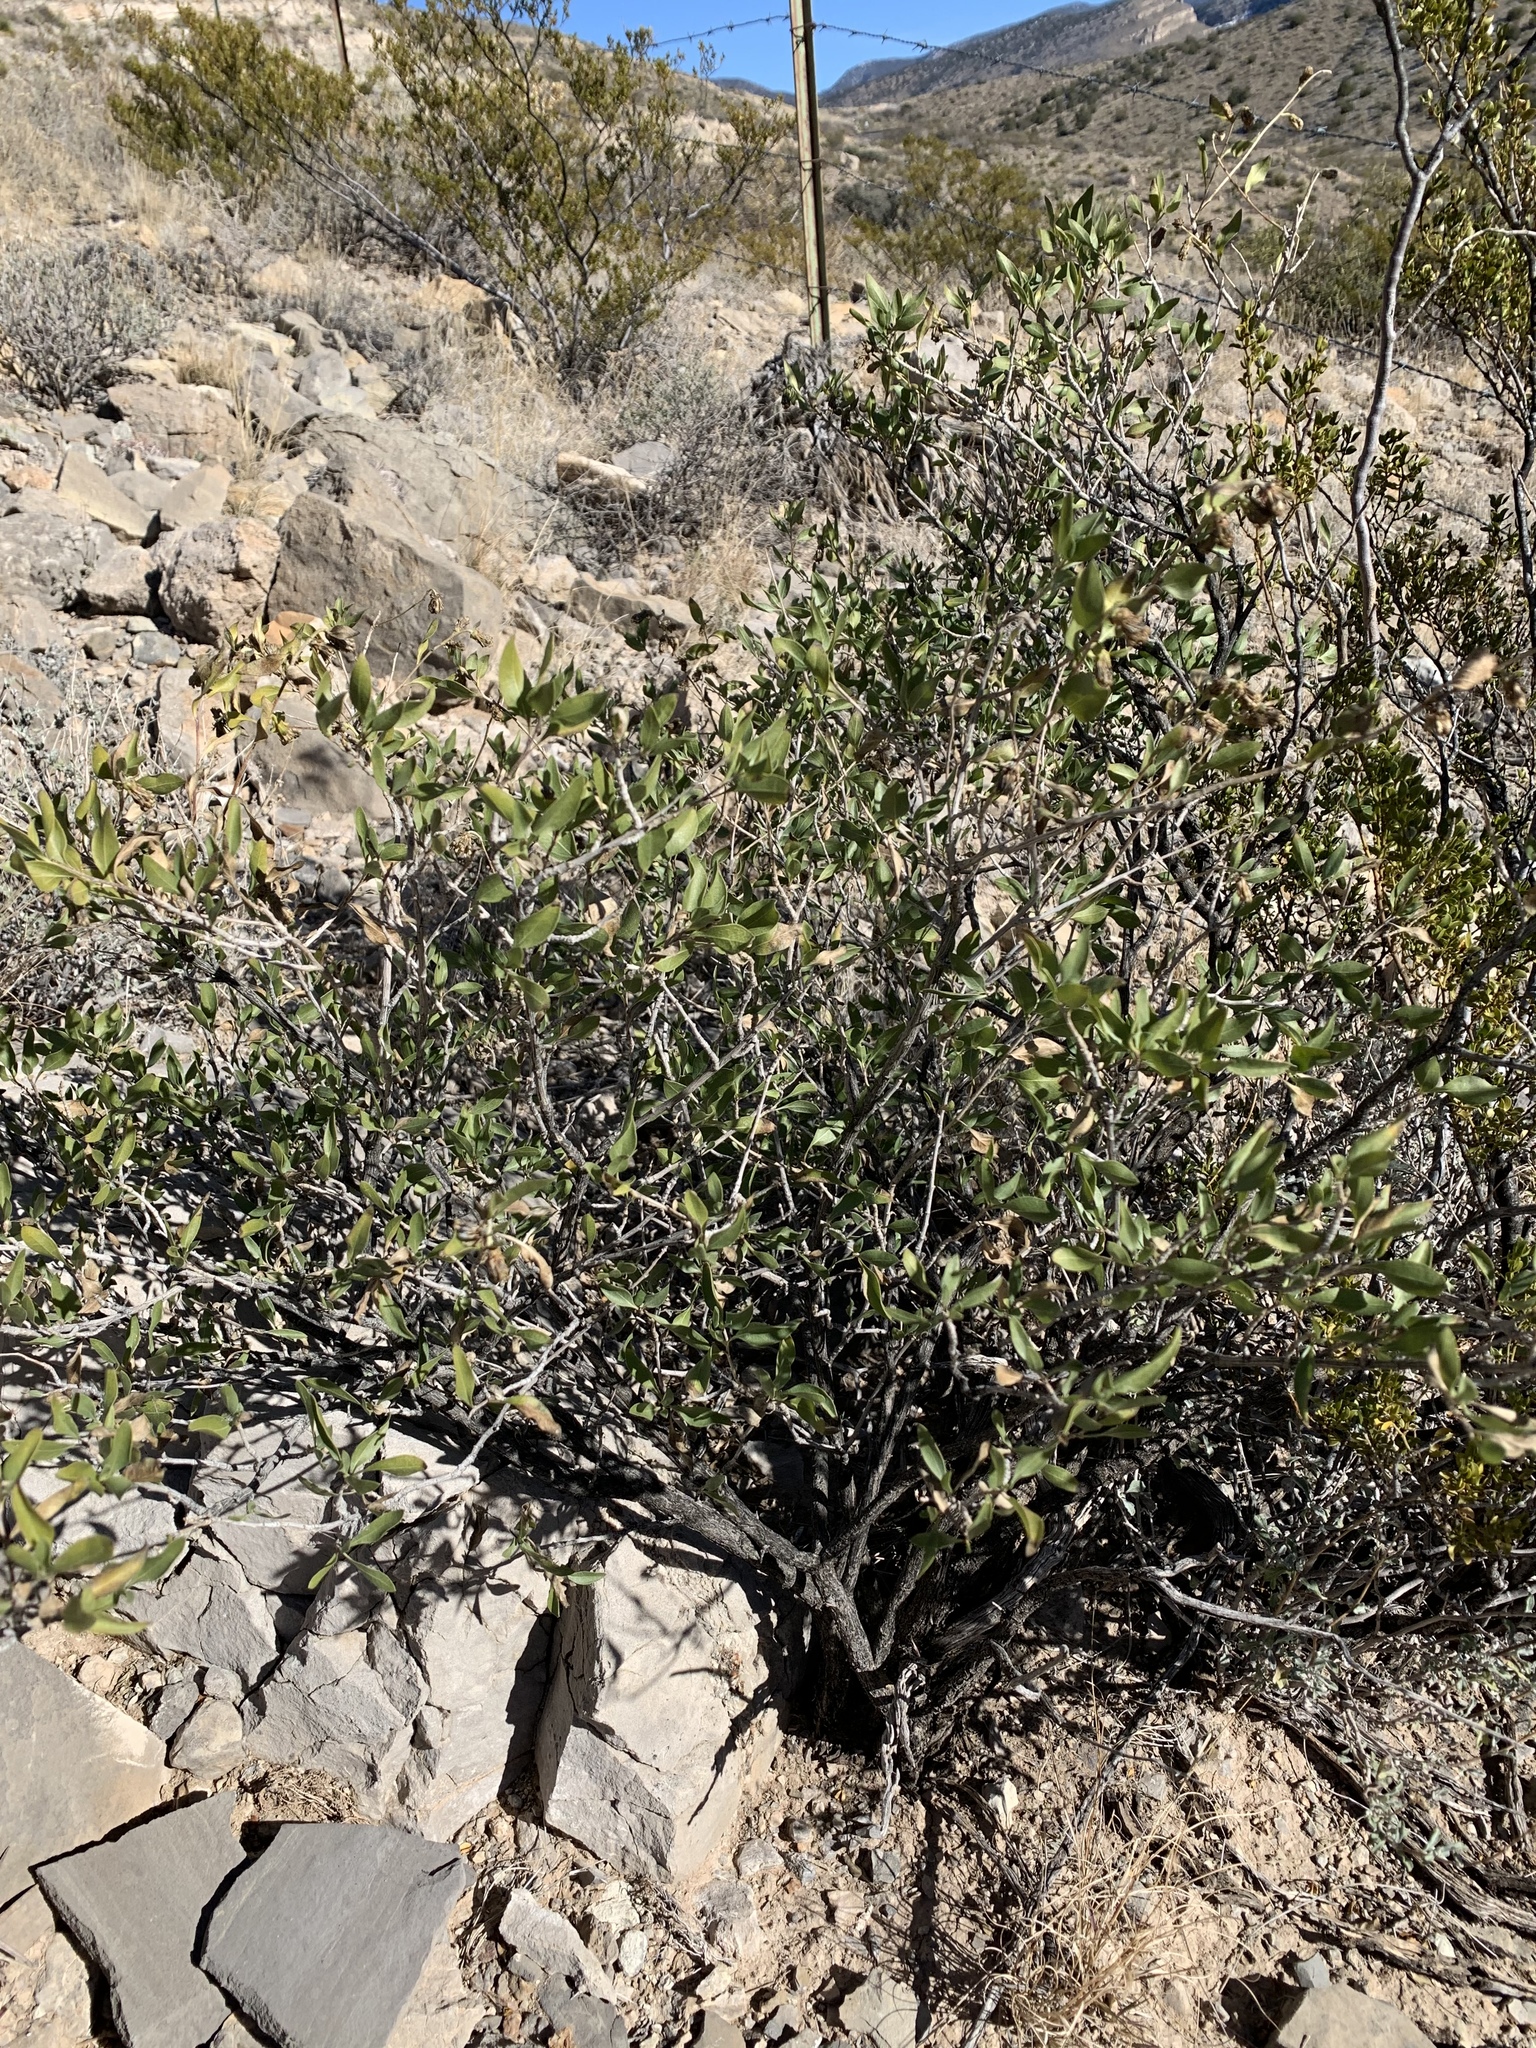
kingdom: Plantae
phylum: Tracheophyta
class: Magnoliopsida
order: Asterales
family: Asteraceae
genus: Flourensia
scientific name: Flourensia cernua
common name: Varnishbush
